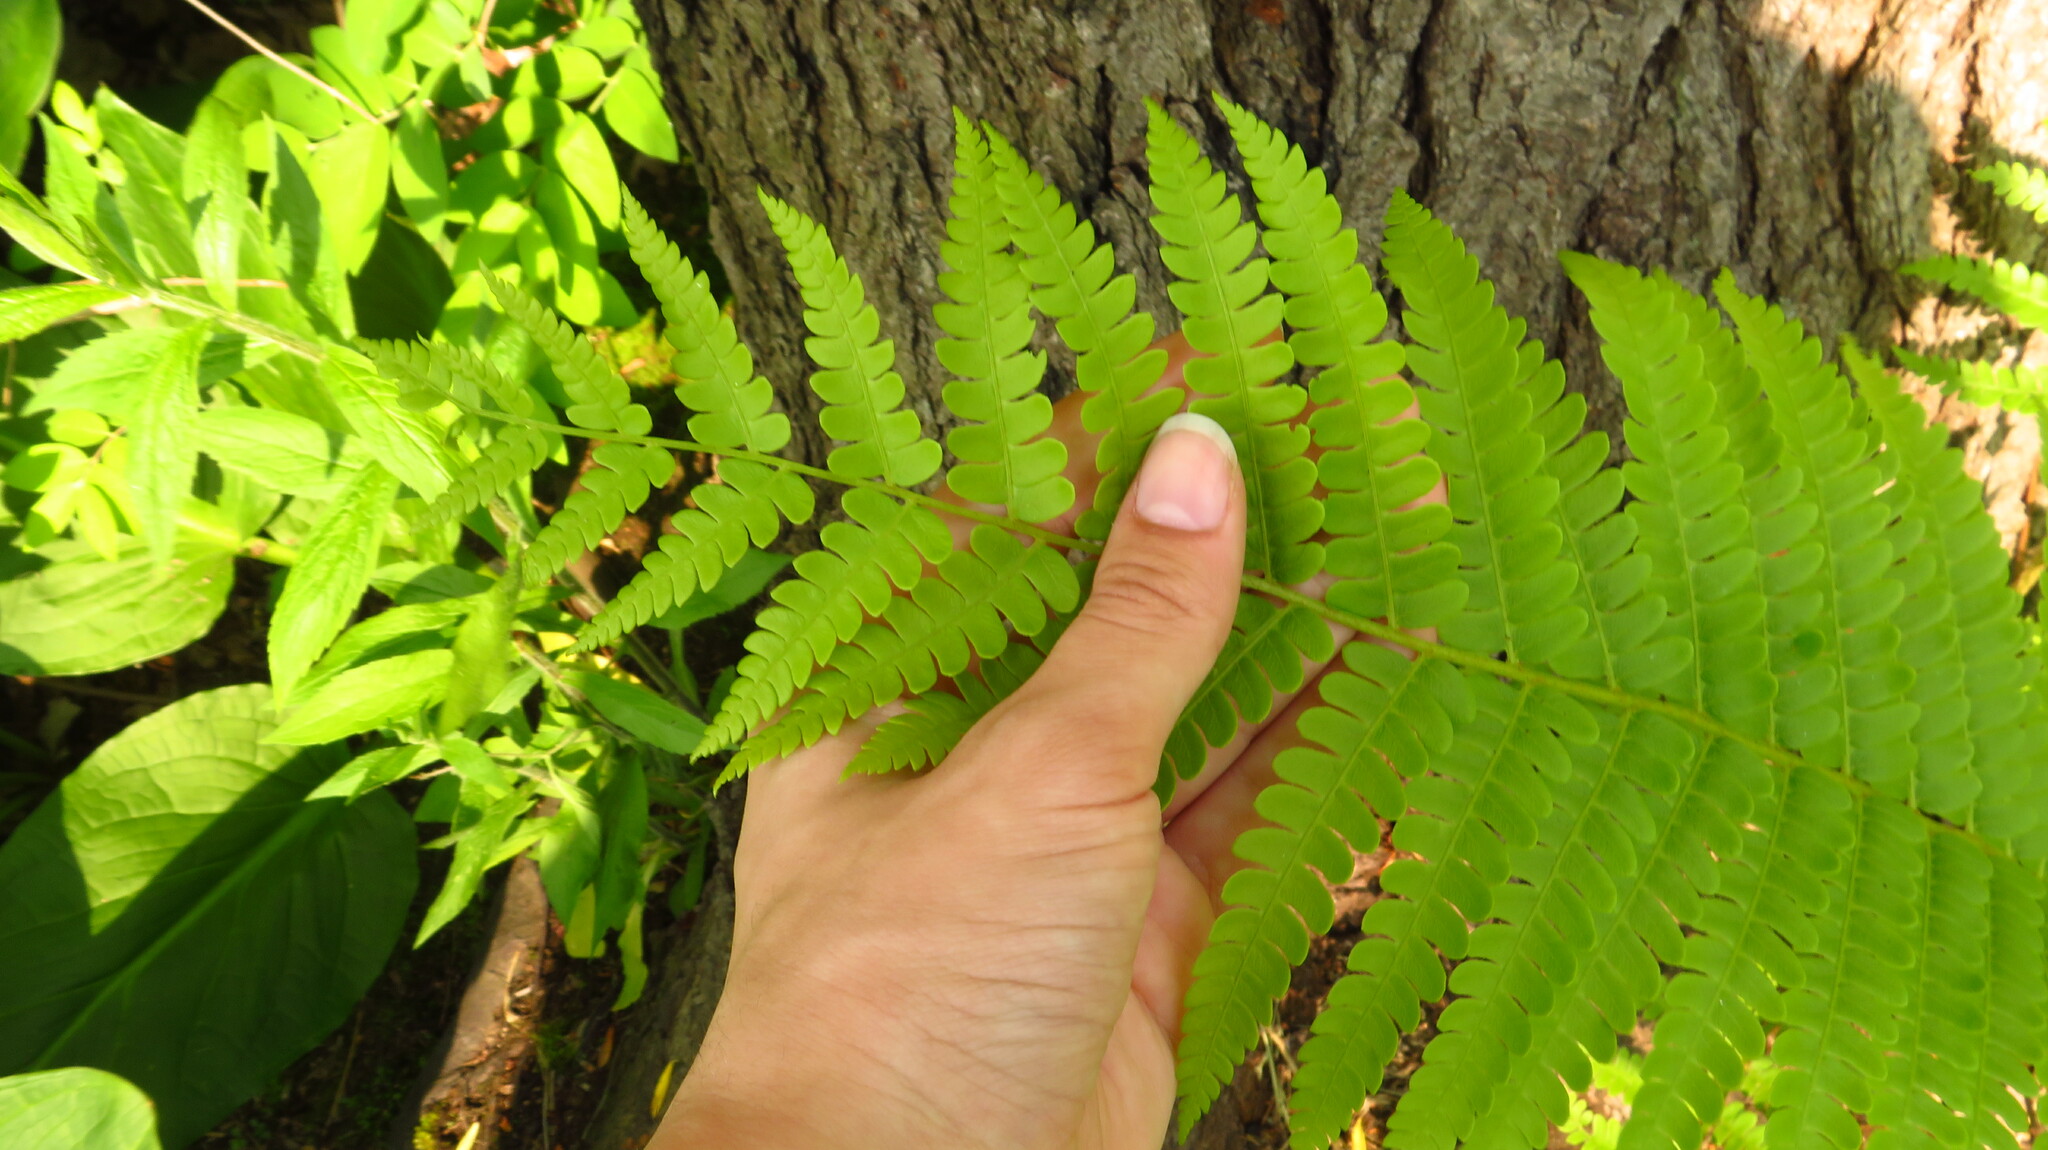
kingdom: Plantae
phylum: Tracheophyta
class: Polypodiopsida
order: Osmundales
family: Osmundaceae
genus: Osmundastrum
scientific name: Osmundastrum cinnamomeum
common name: Cinnamon fern
